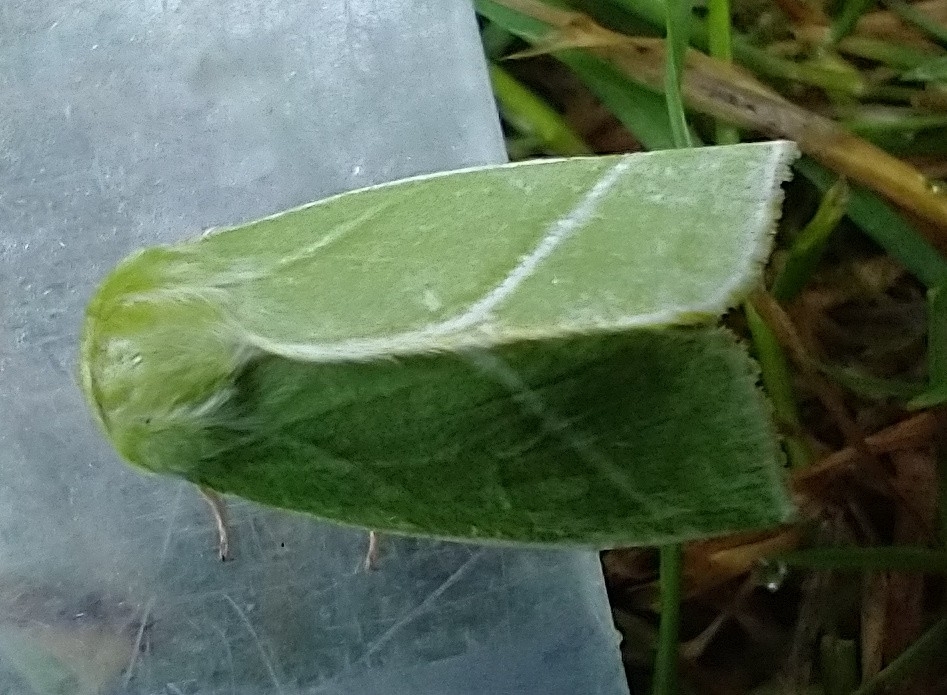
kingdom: Animalia
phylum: Arthropoda
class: Insecta
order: Lepidoptera
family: Nolidae
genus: Pseudoips
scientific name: Pseudoips prasinana
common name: Green silver-lines
